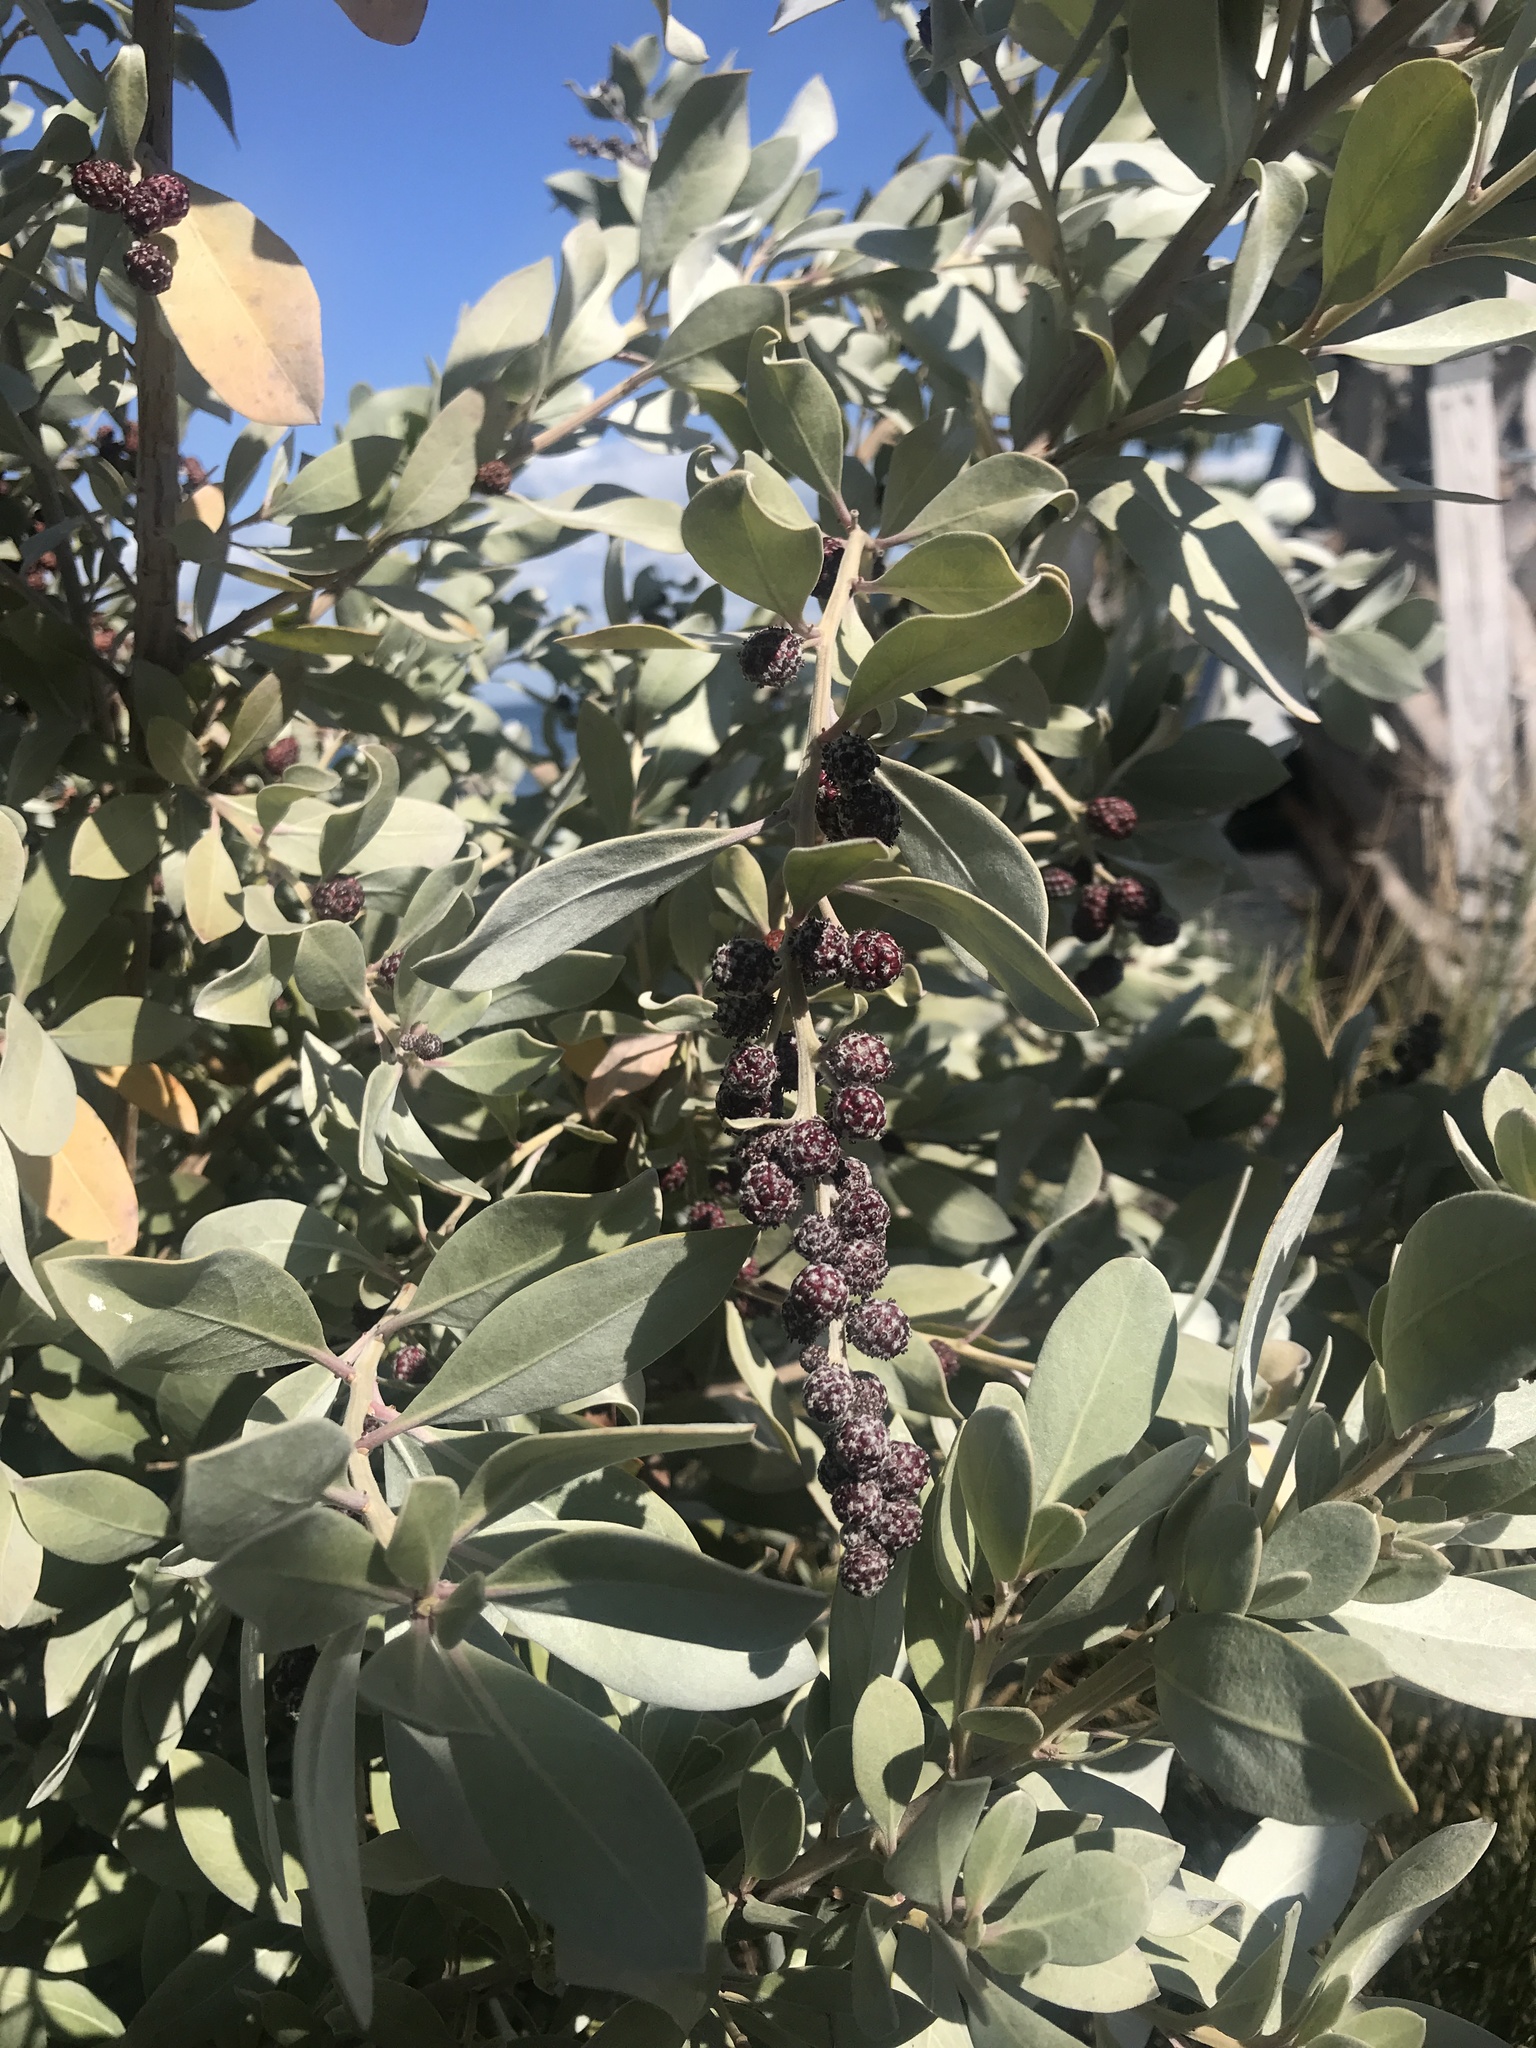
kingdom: Plantae
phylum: Tracheophyta
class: Magnoliopsida
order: Myrtales
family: Combretaceae
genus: Conocarpus
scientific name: Conocarpus erectus
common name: Button mangrove
